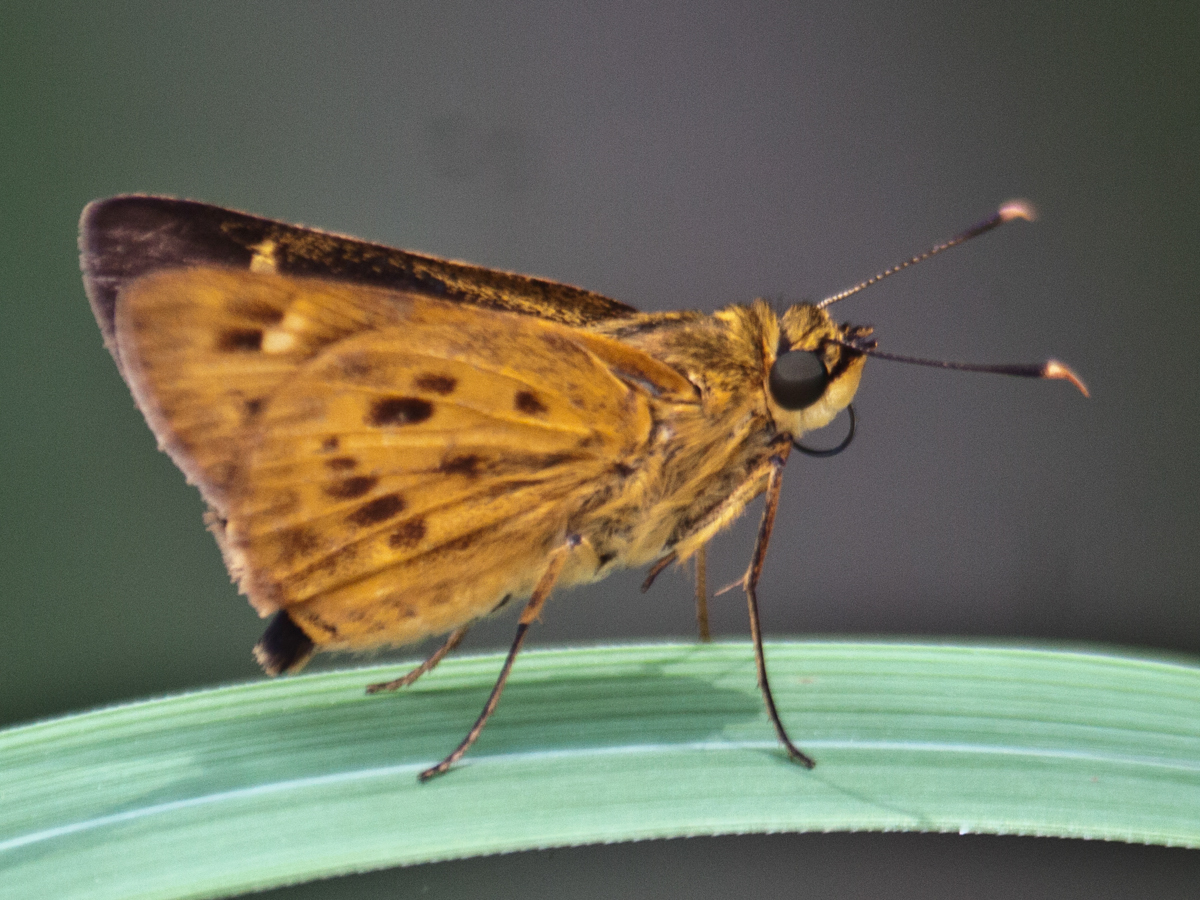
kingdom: Animalia
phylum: Arthropoda
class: Insecta
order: Lepidoptera
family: Hesperiidae
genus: Thoressa
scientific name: Thoressa masoni
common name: Golden ace
